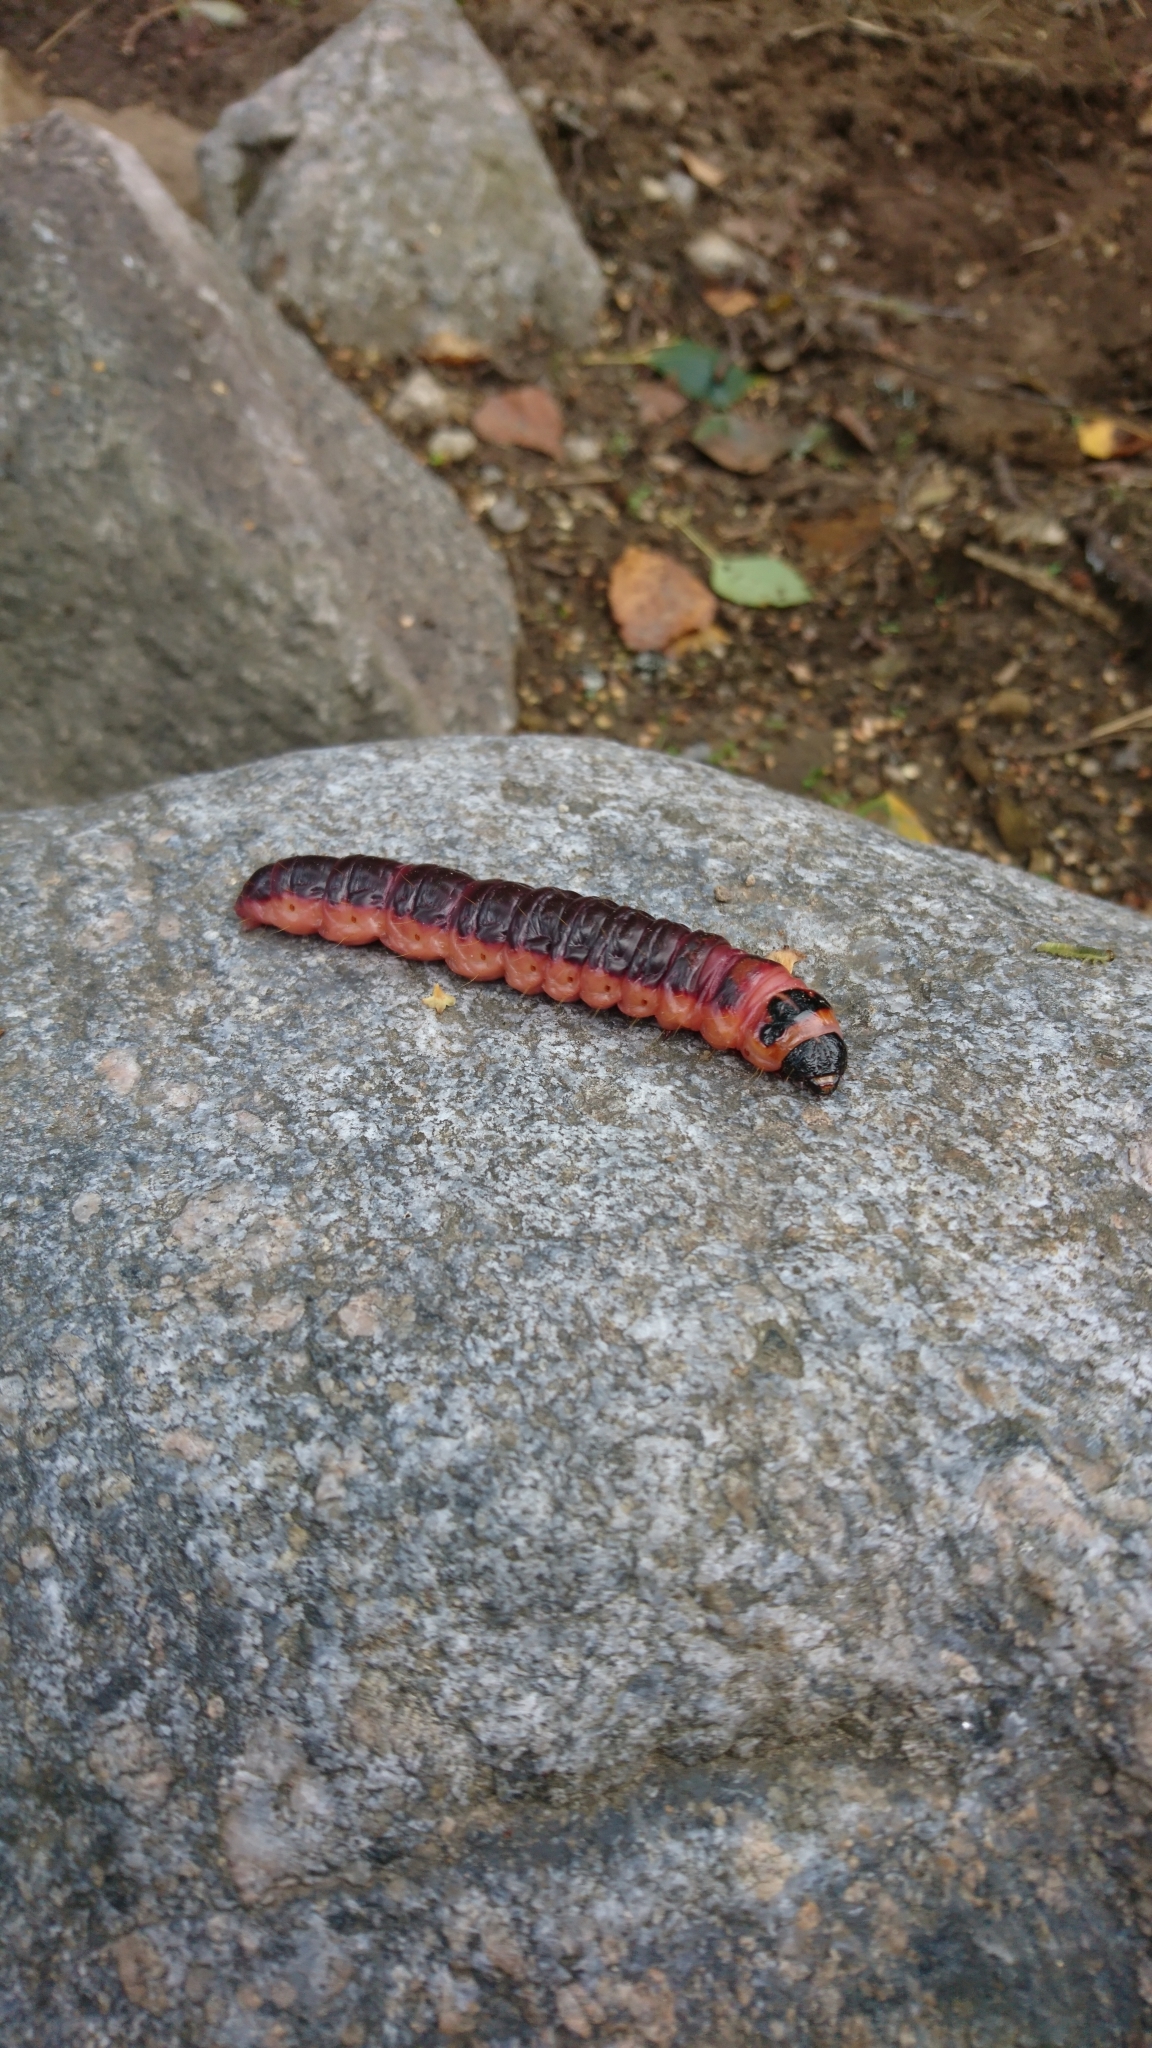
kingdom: Animalia
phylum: Arthropoda
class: Insecta
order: Lepidoptera
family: Cossidae
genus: Cossus
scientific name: Cossus cossus
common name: Goat moth
